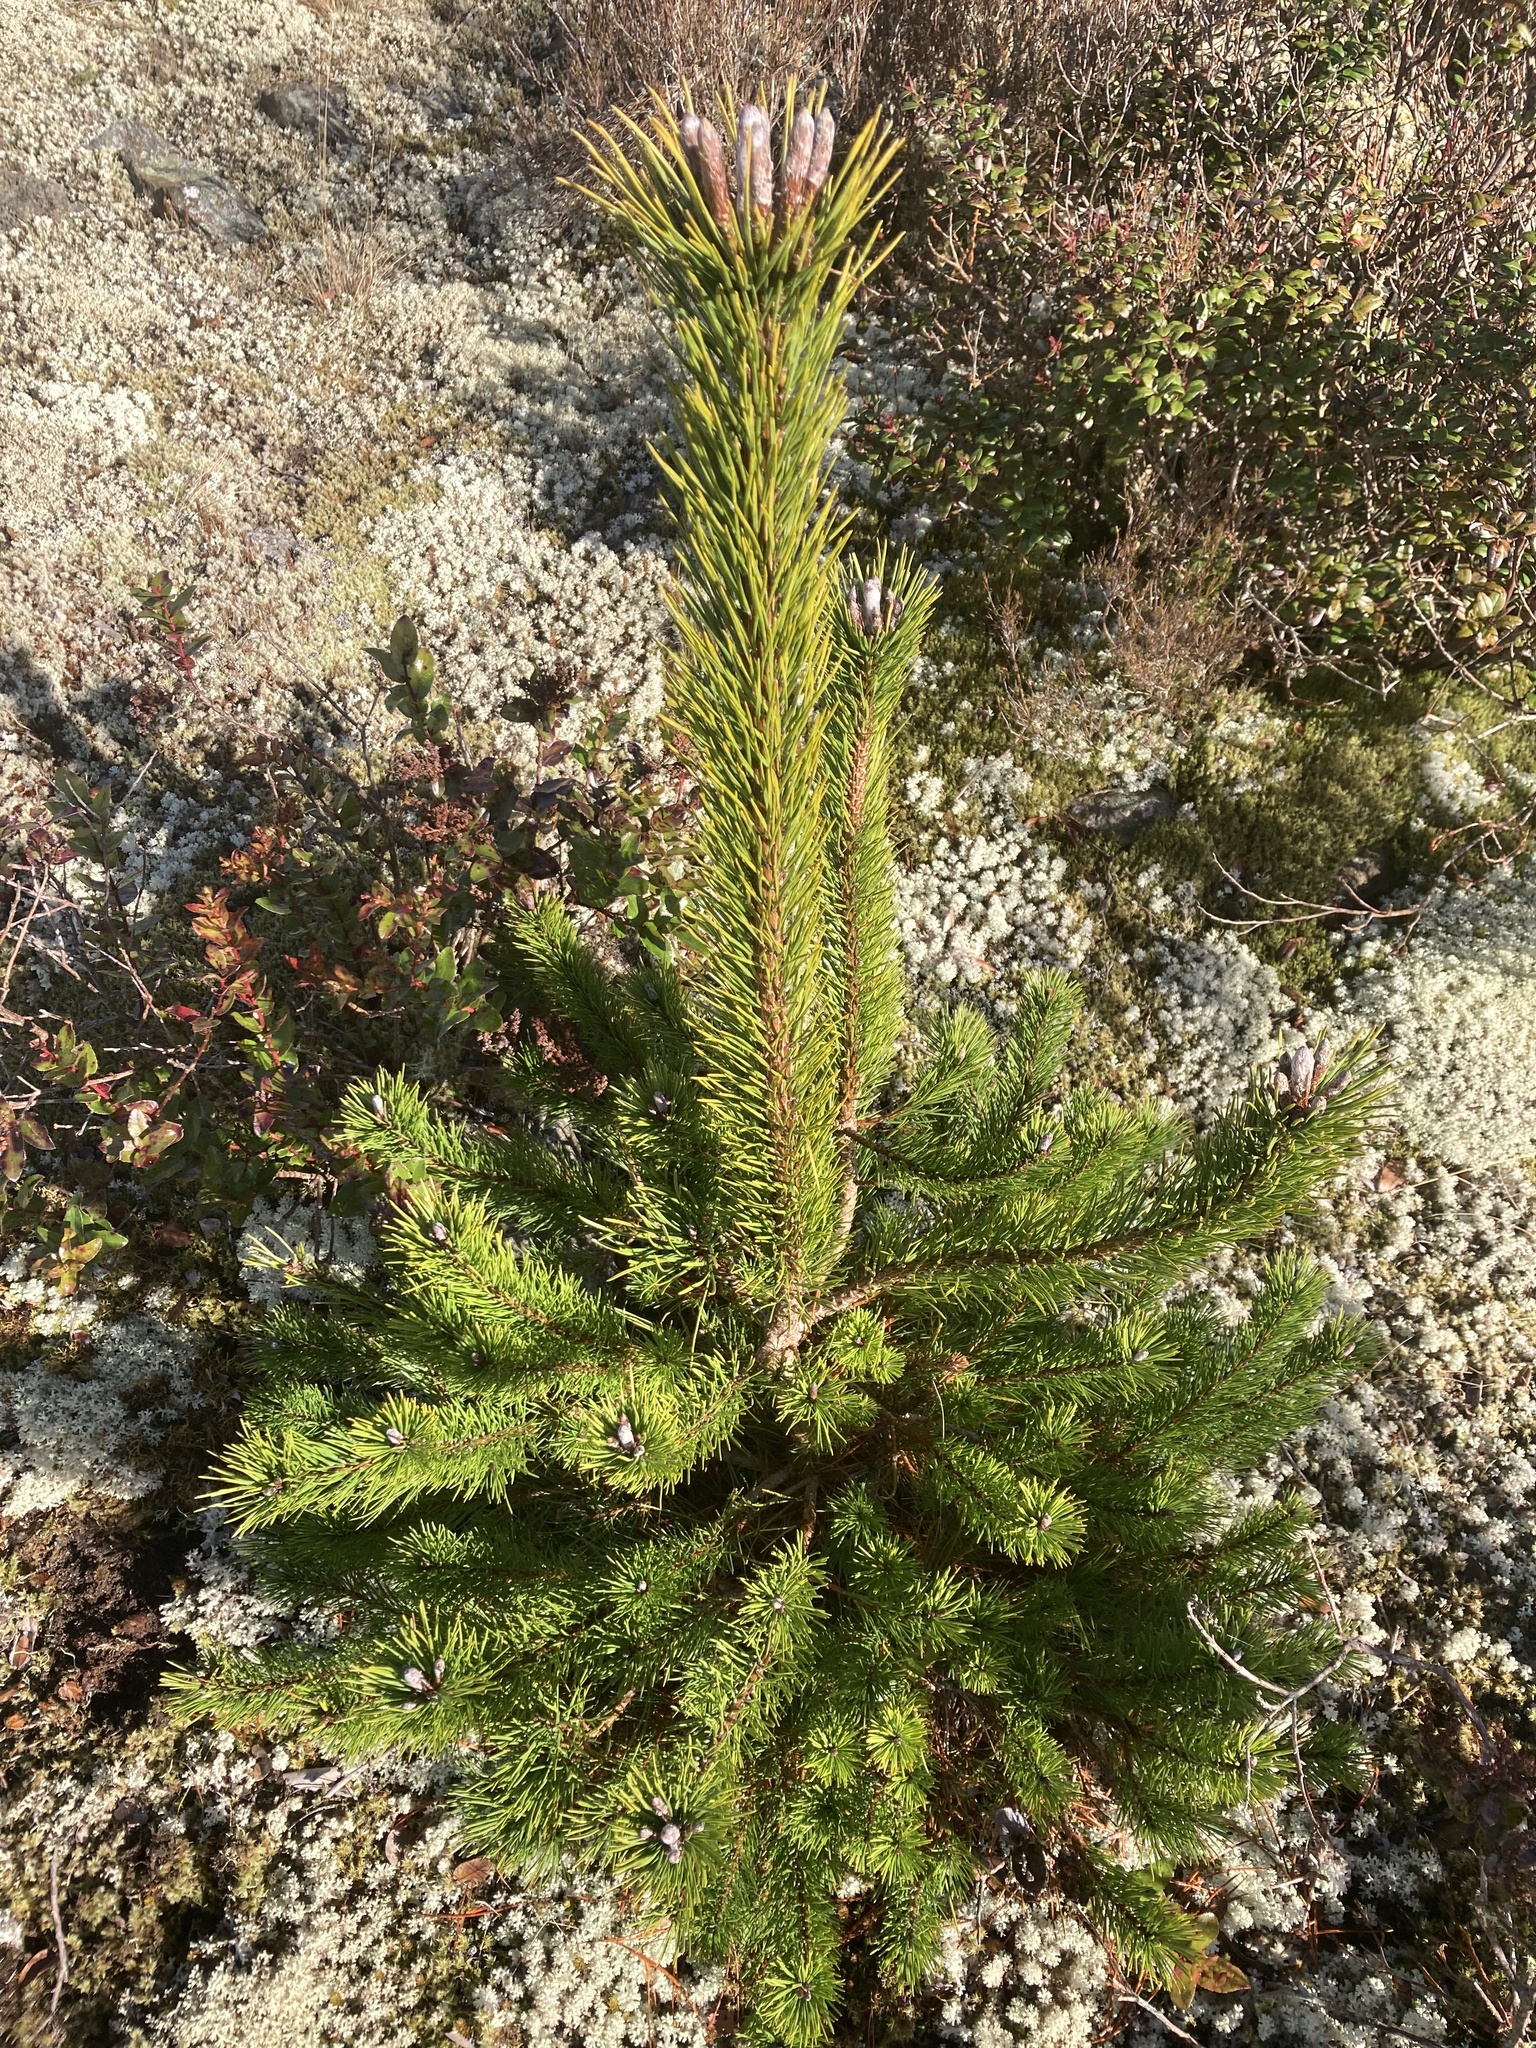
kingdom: Plantae
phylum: Tracheophyta
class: Pinopsida
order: Pinales
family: Pinaceae
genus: Pinus
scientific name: Pinus contorta
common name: Lodgepole pine
